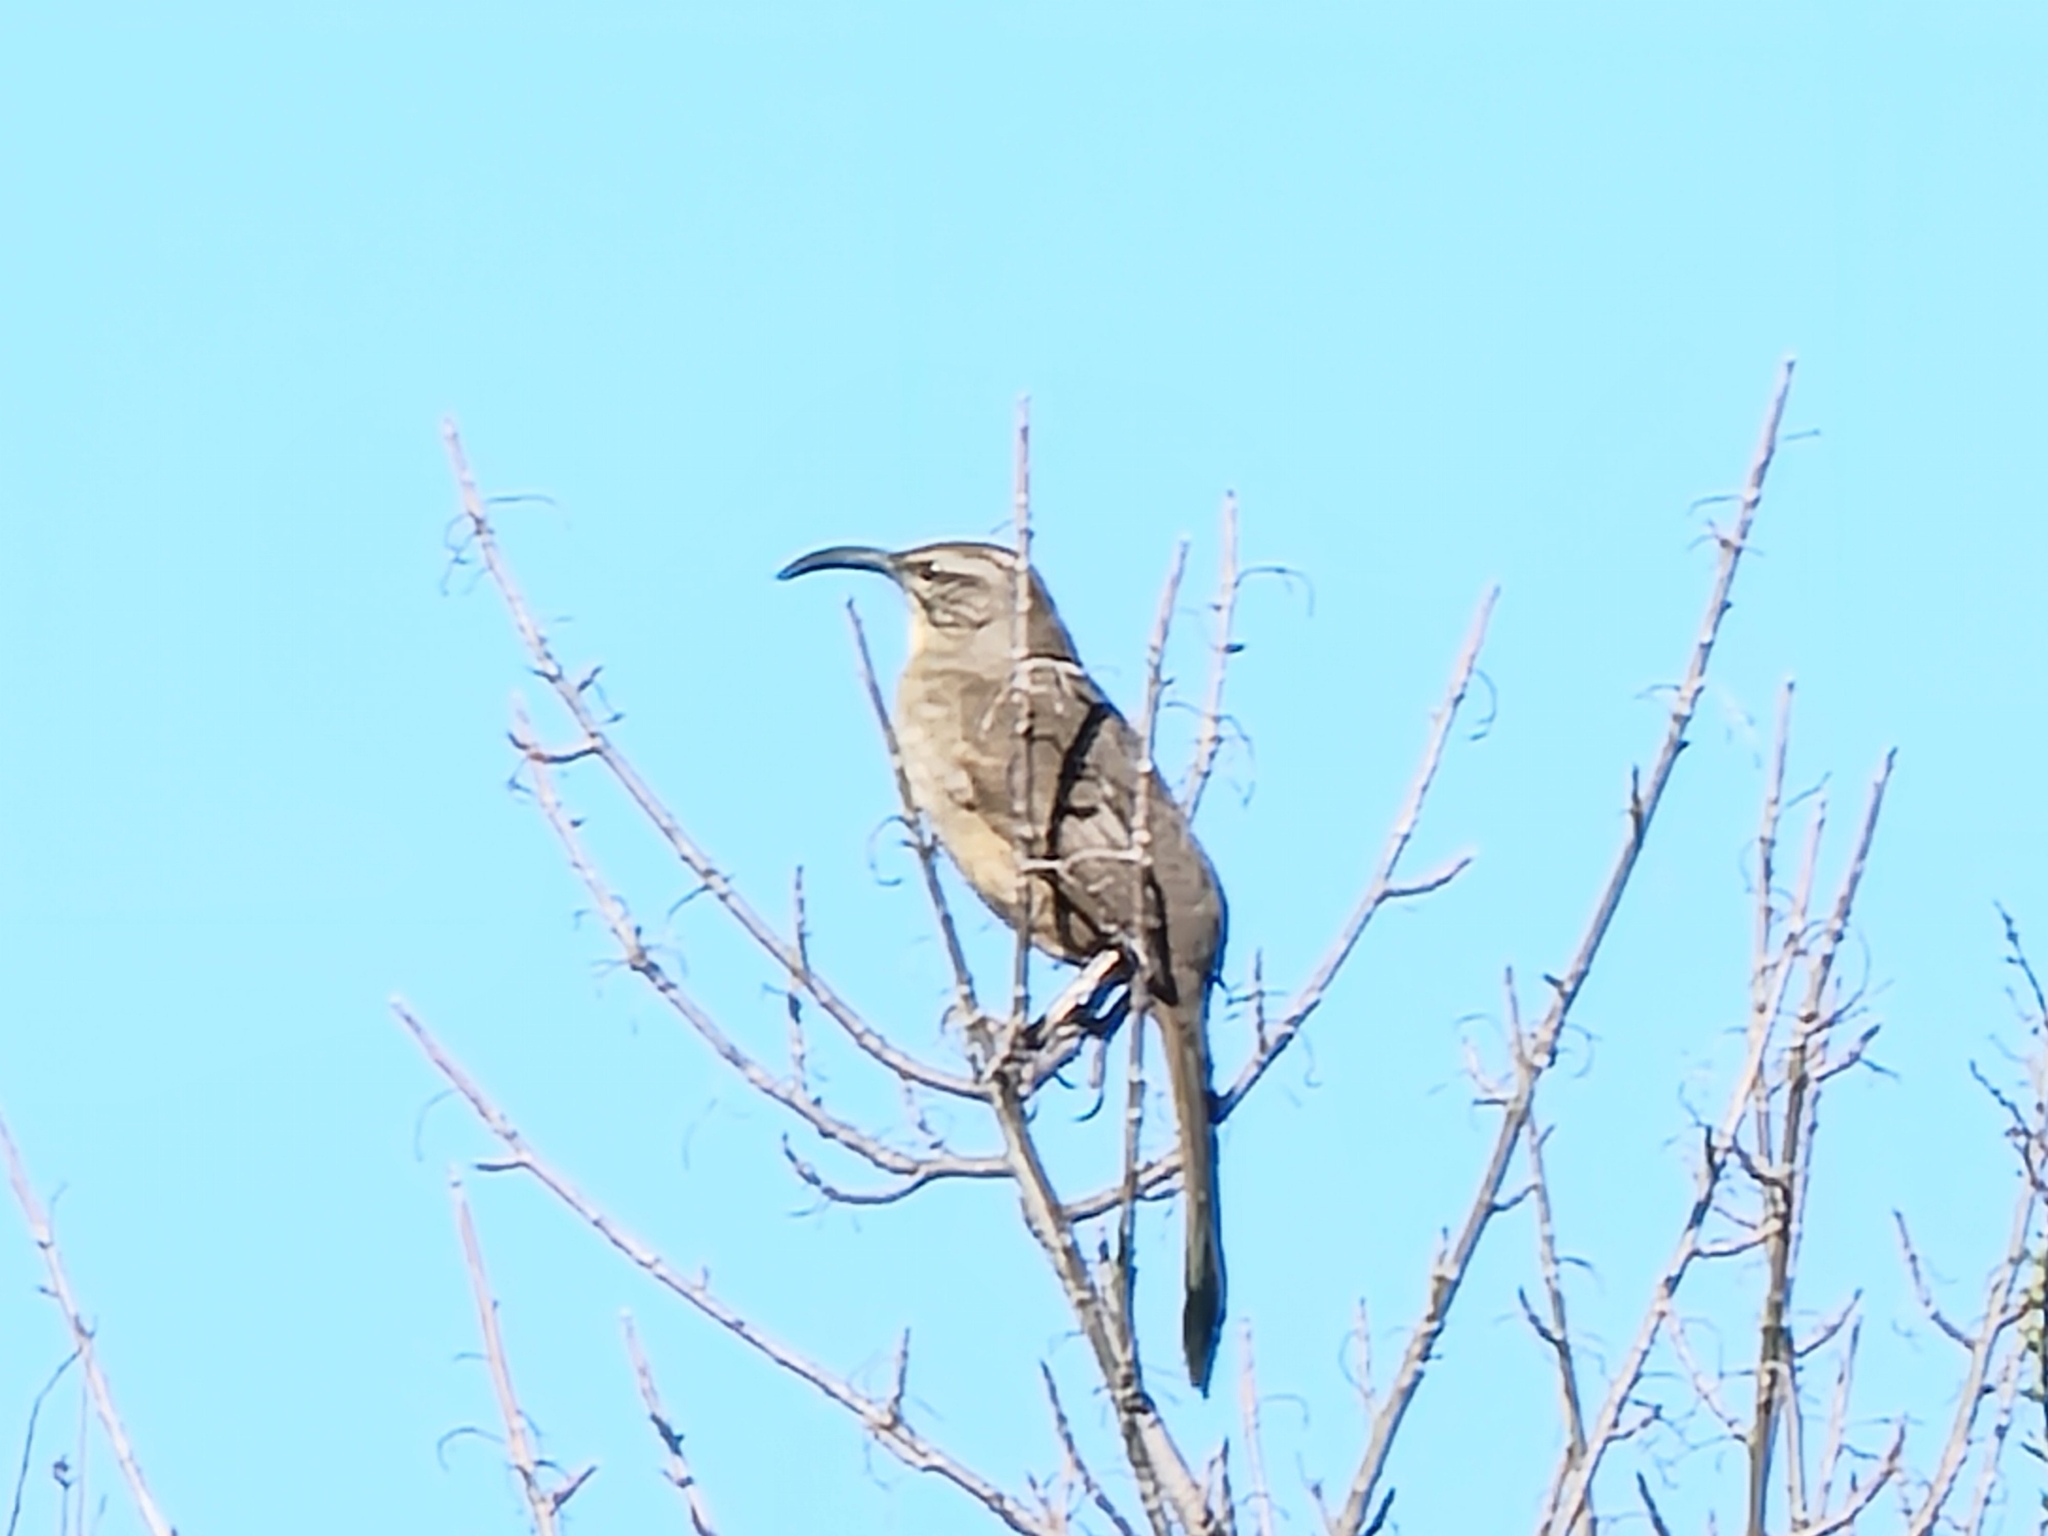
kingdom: Animalia
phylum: Chordata
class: Aves
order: Passeriformes
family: Mimidae
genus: Toxostoma
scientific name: Toxostoma redivivum
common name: California thrasher
